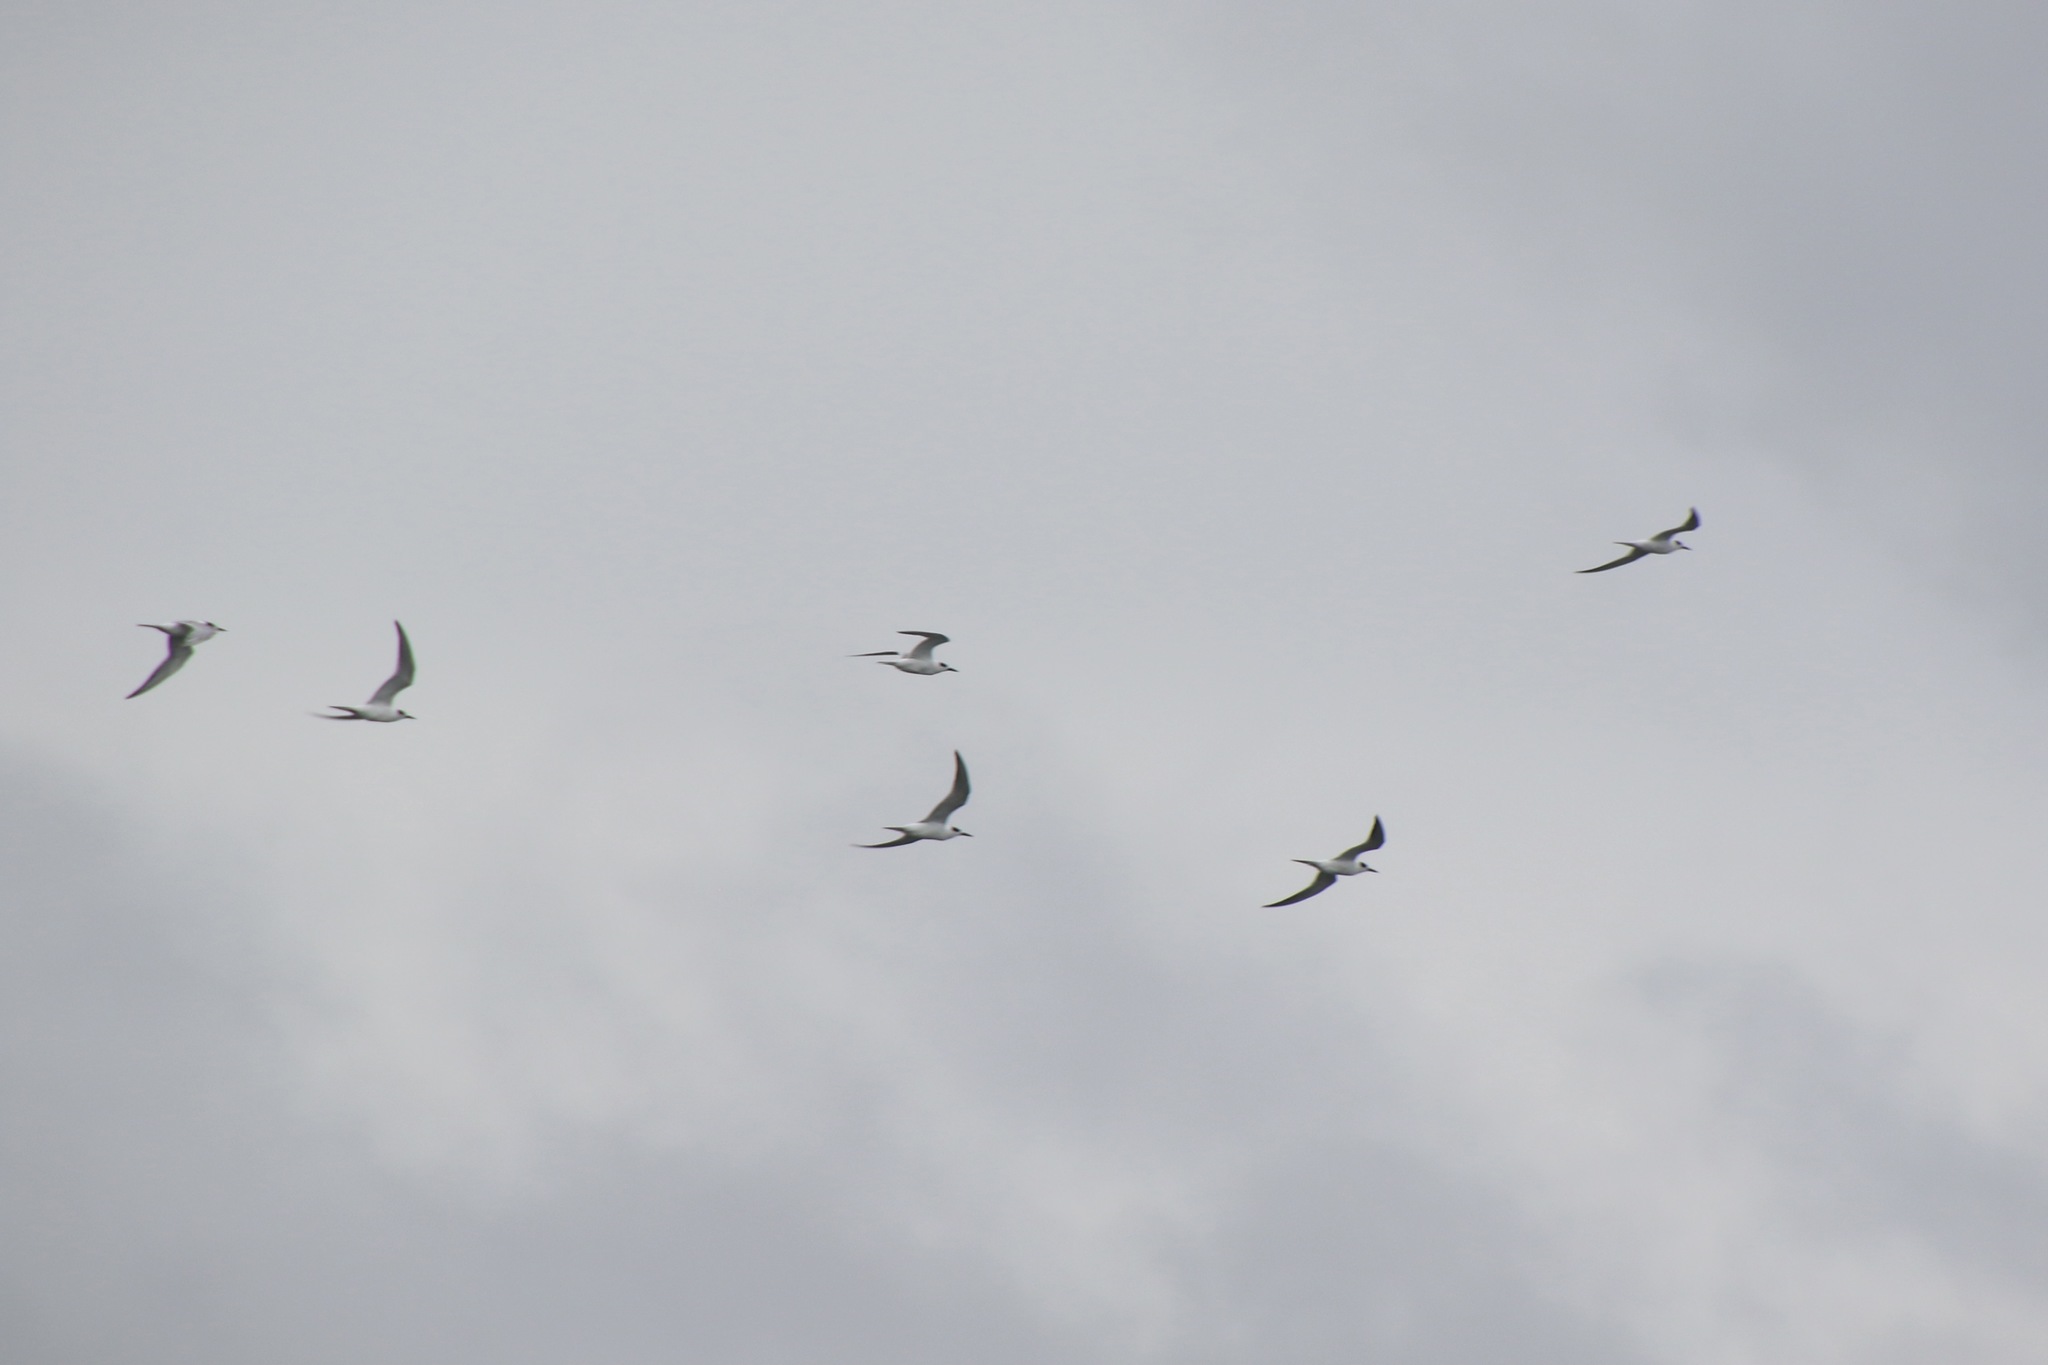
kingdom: Animalia
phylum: Chordata
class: Aves
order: Charadriiformes
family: Laridae
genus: Sterna
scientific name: Sterna forsteri
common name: Forster's tern
